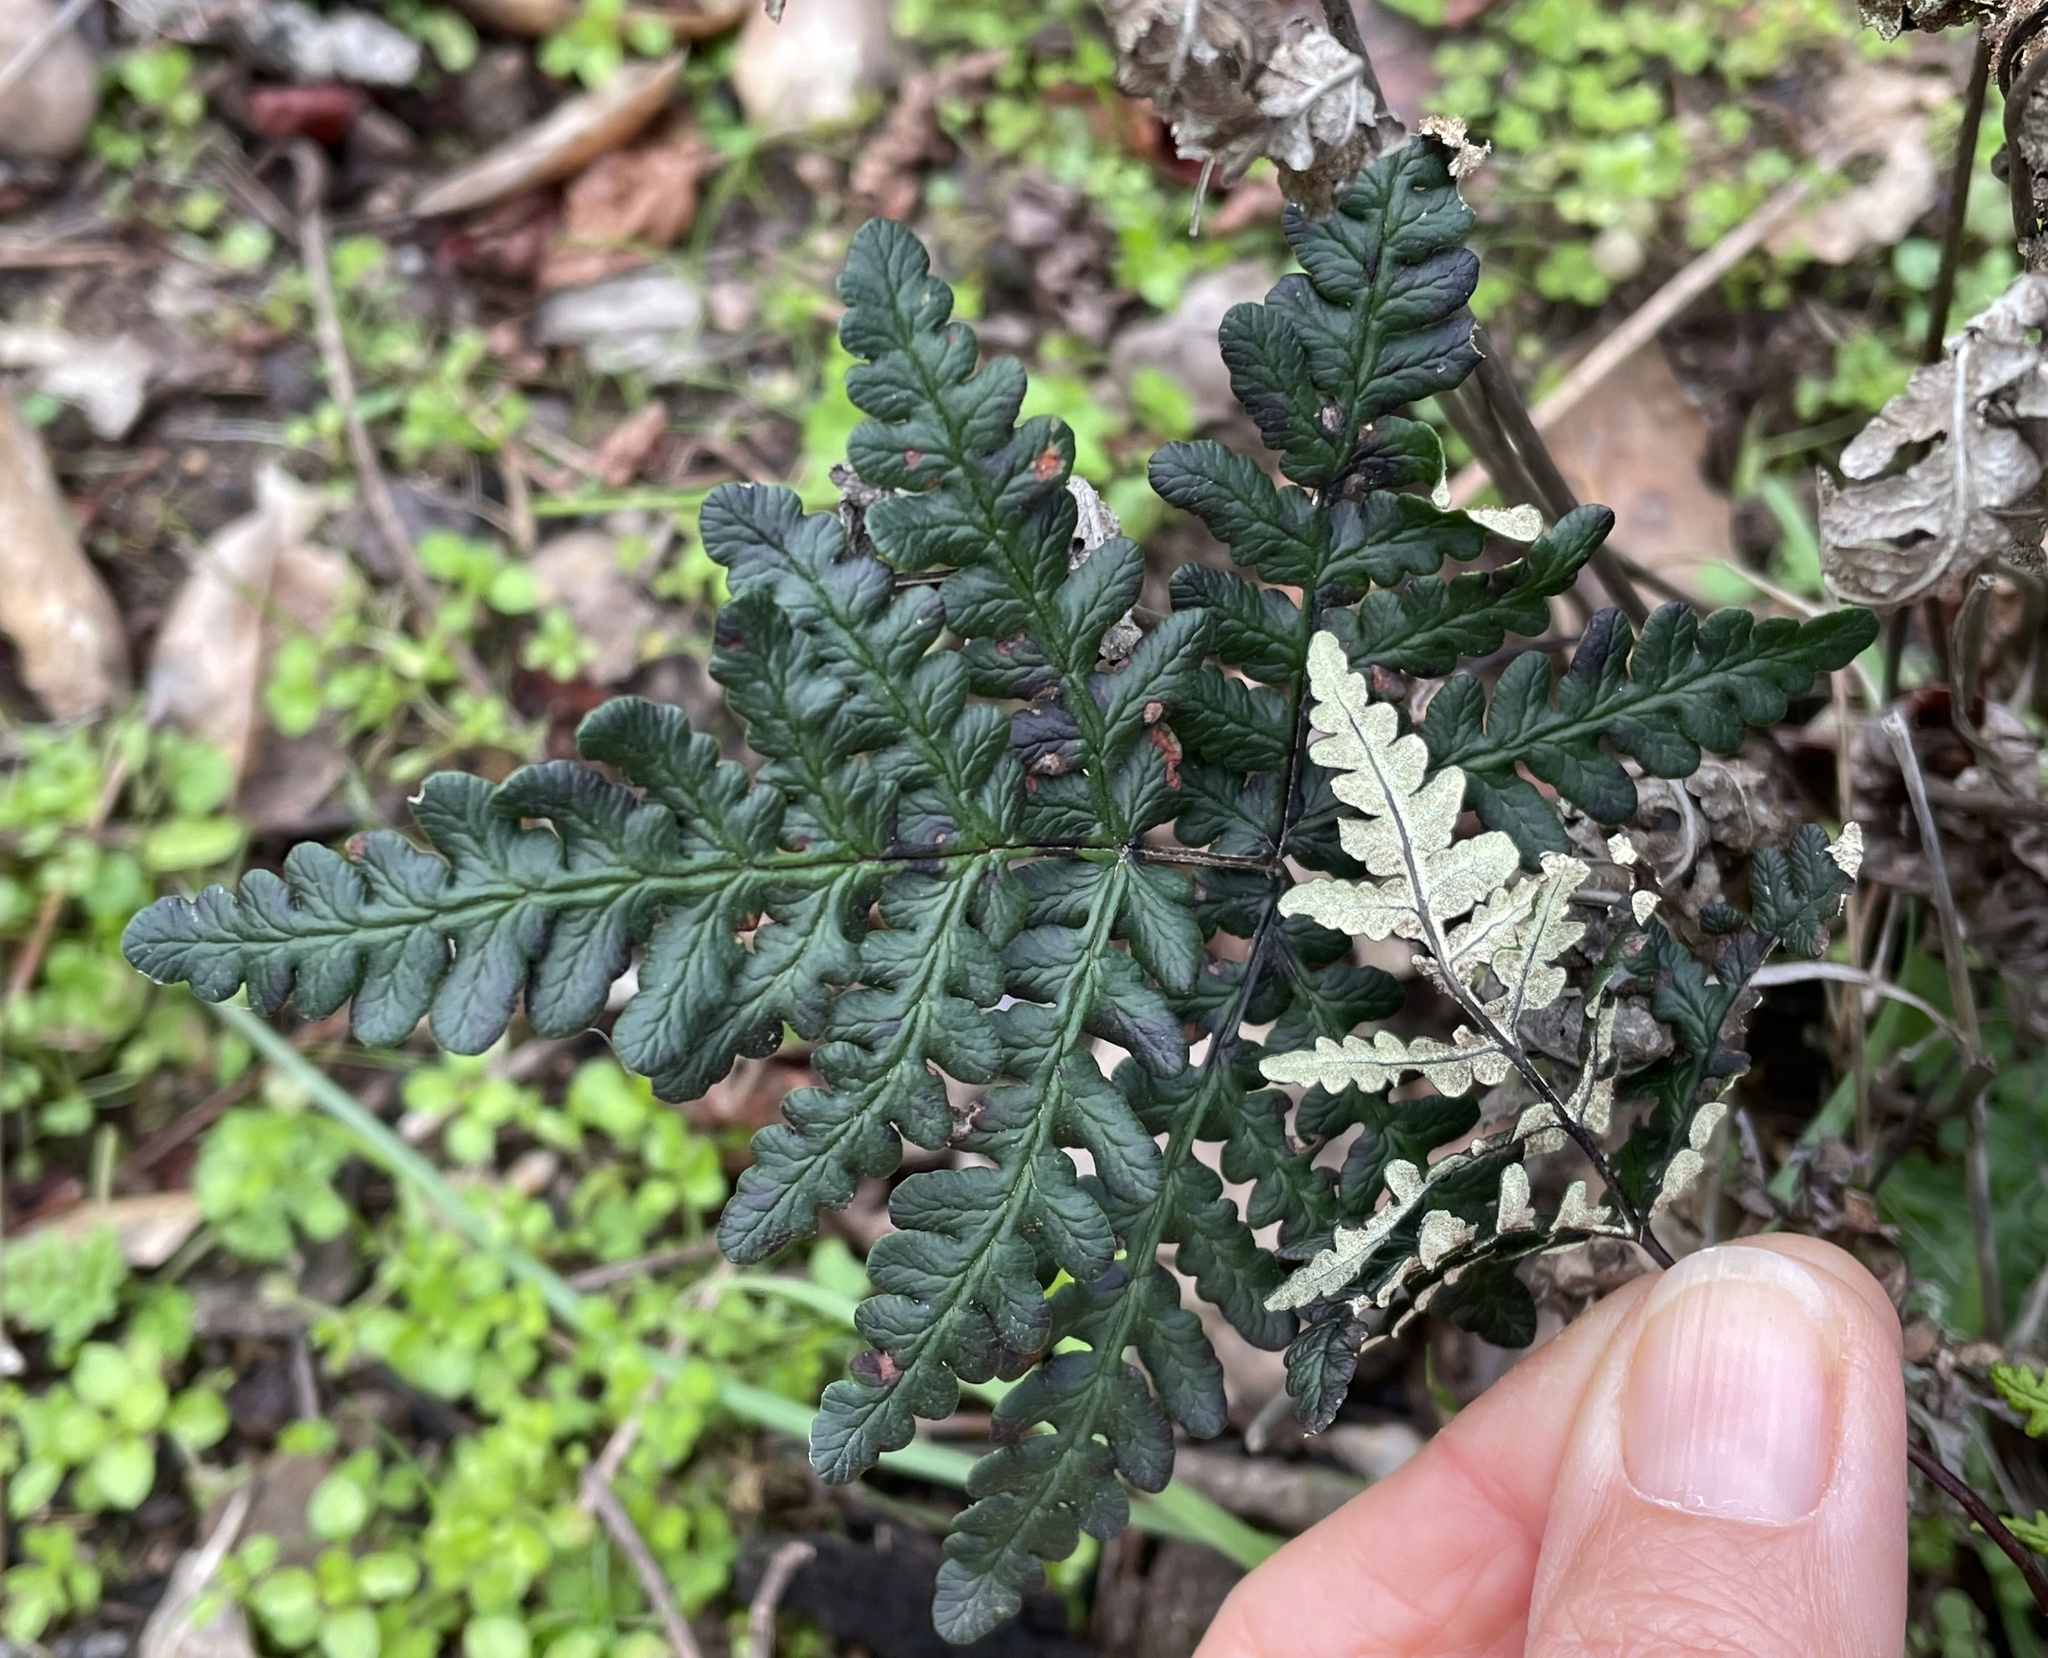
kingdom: Plantae
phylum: Tracheophyta
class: Polypodiopsida
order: Polypodiales
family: Pteridaceae
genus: Pentagramma
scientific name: Pentagramma triangularis
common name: Gold fern
